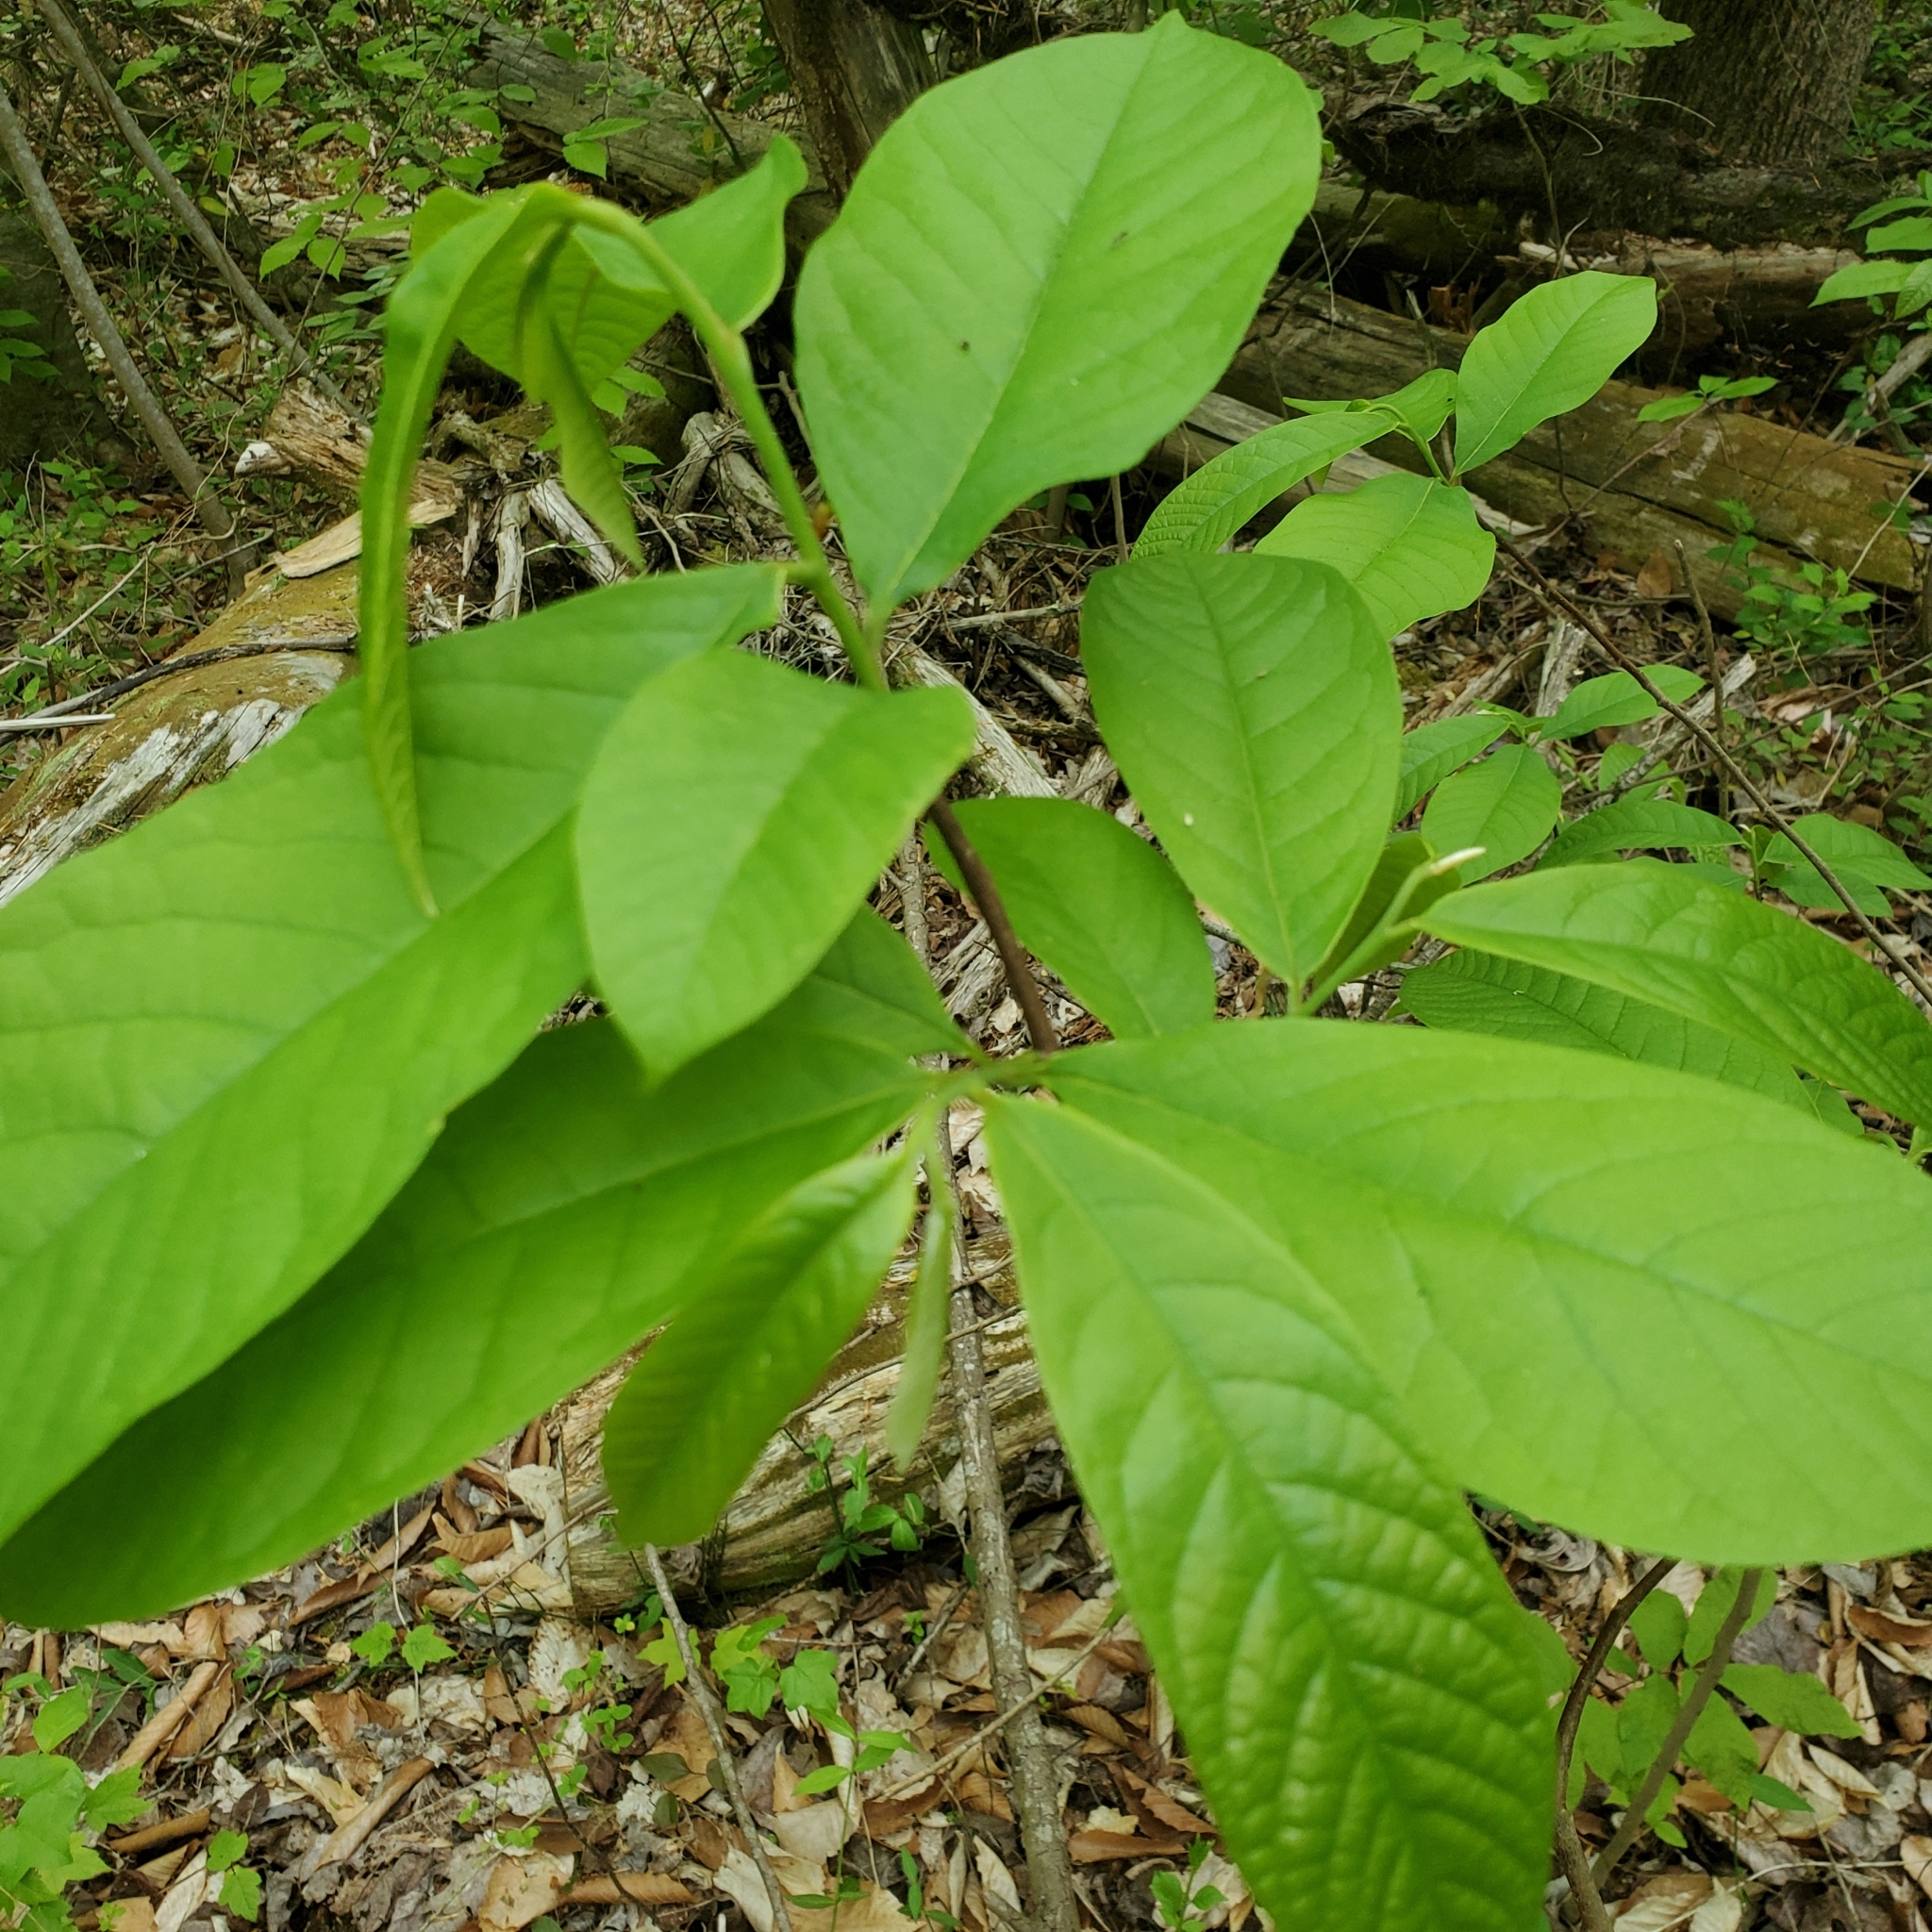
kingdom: Plantae
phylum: Tracheophyta
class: Magnoliopsida
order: Magnoliales
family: Annonaceae
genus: Asimina
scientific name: Asimina triloba
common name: Dog-banana
